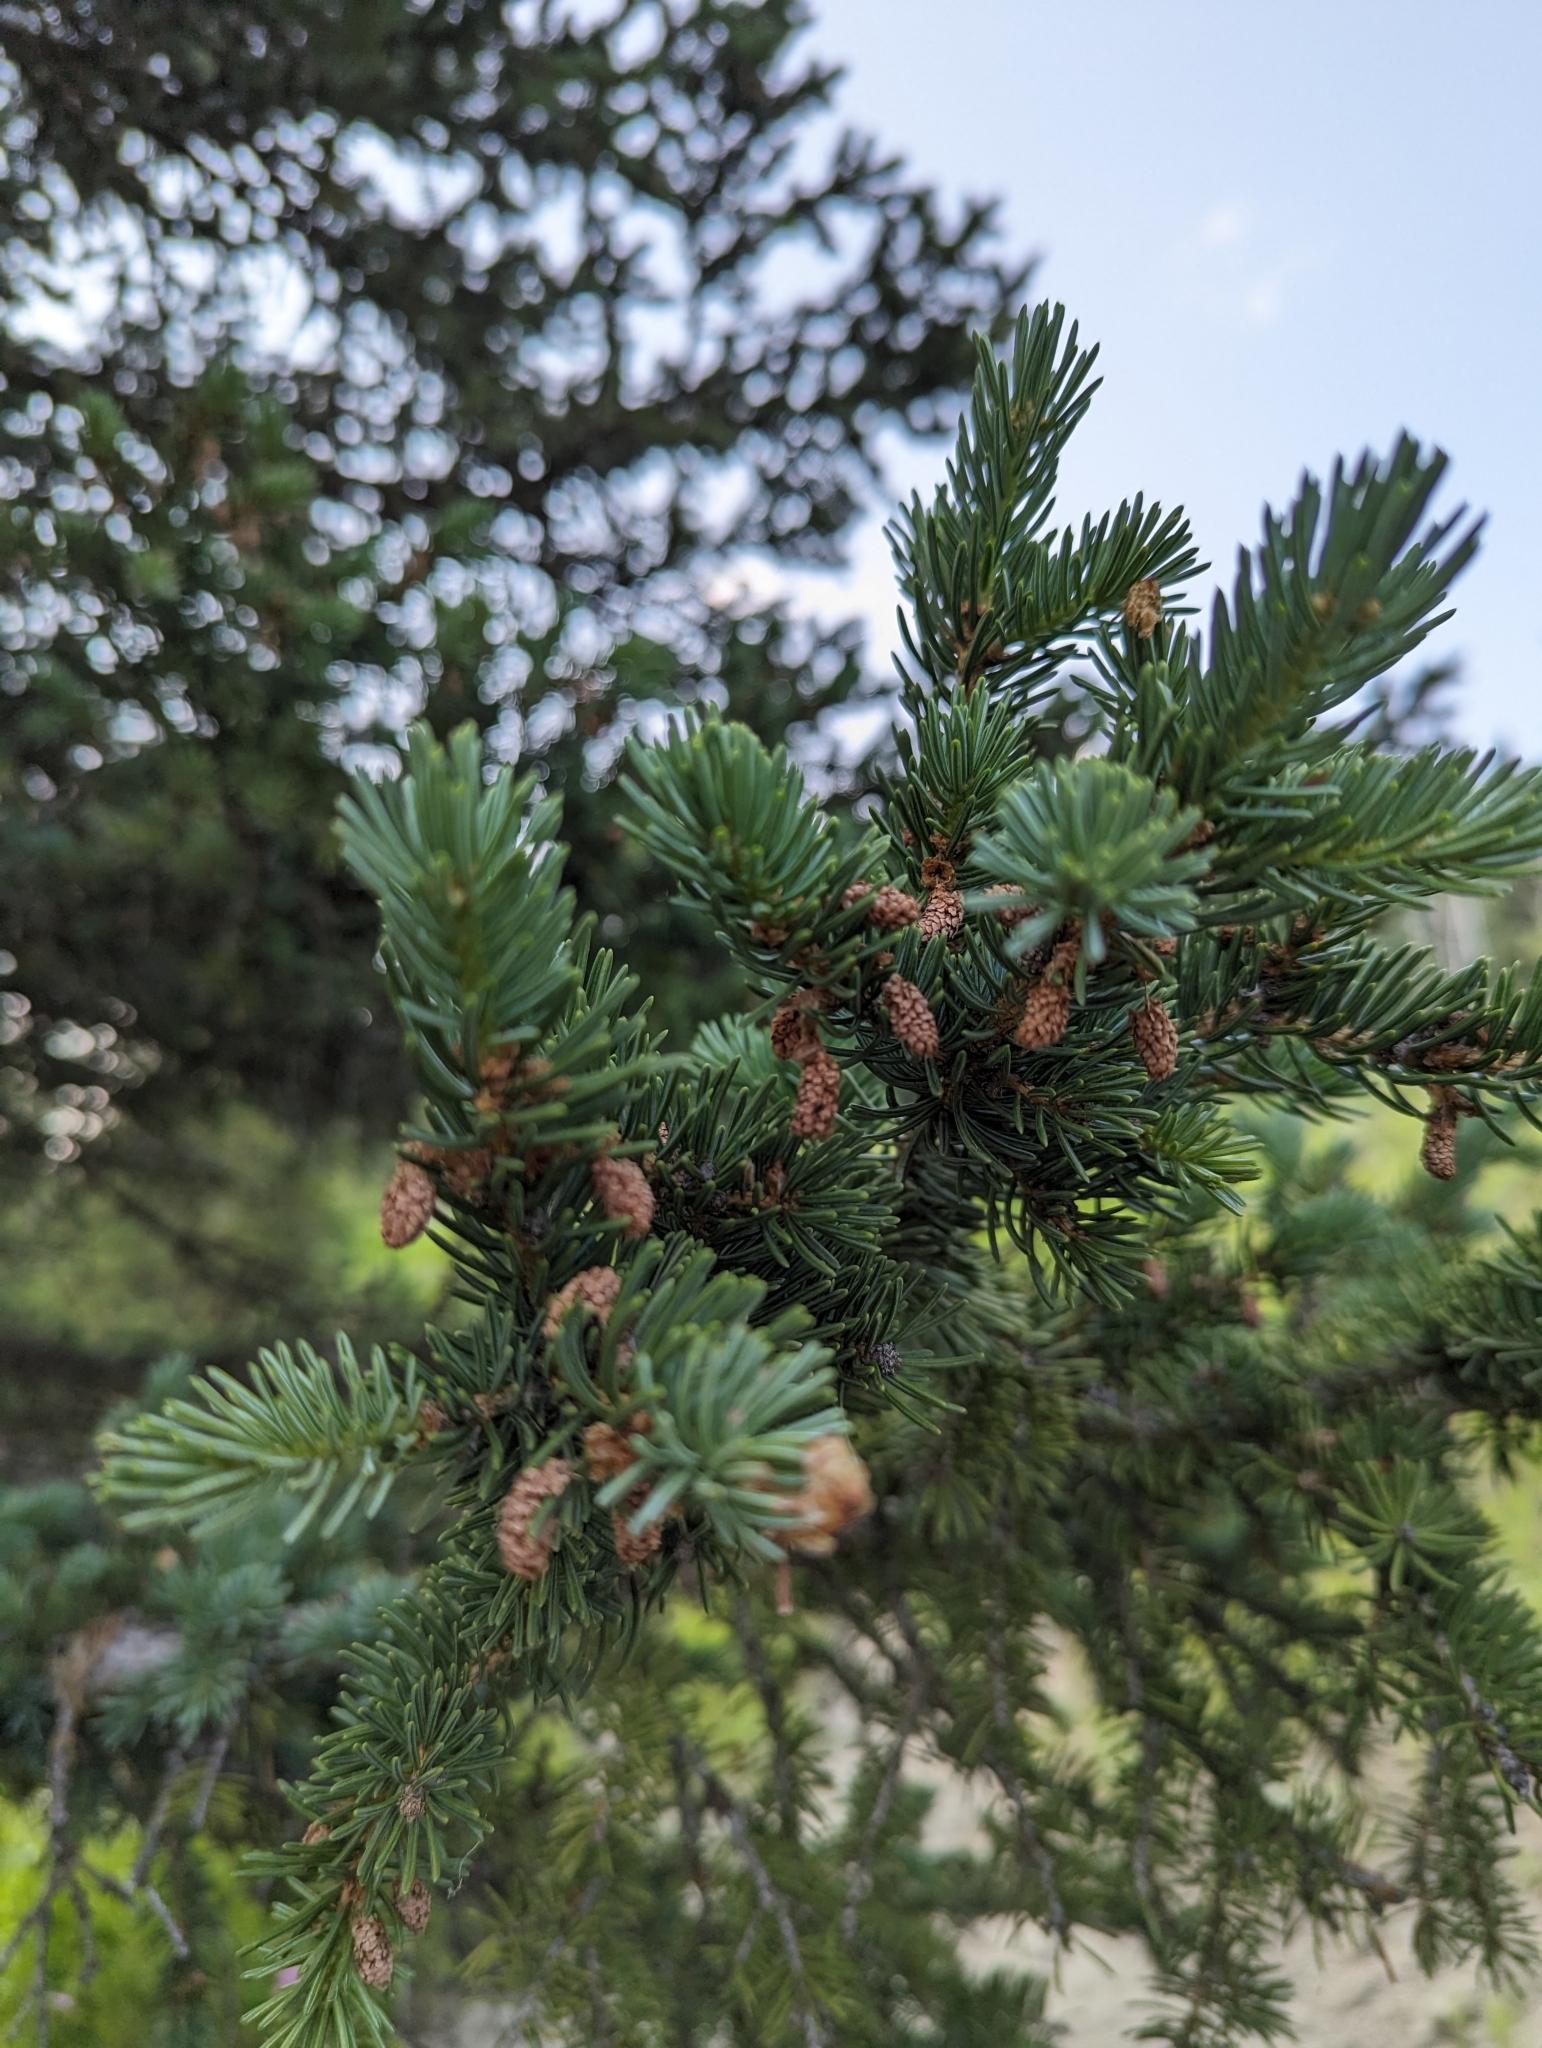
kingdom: Plantae
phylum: Tracheophyta
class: Pinopsida
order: Pinales
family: Pinaceae
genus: Picea
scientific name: Picea glauca
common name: White spruce
